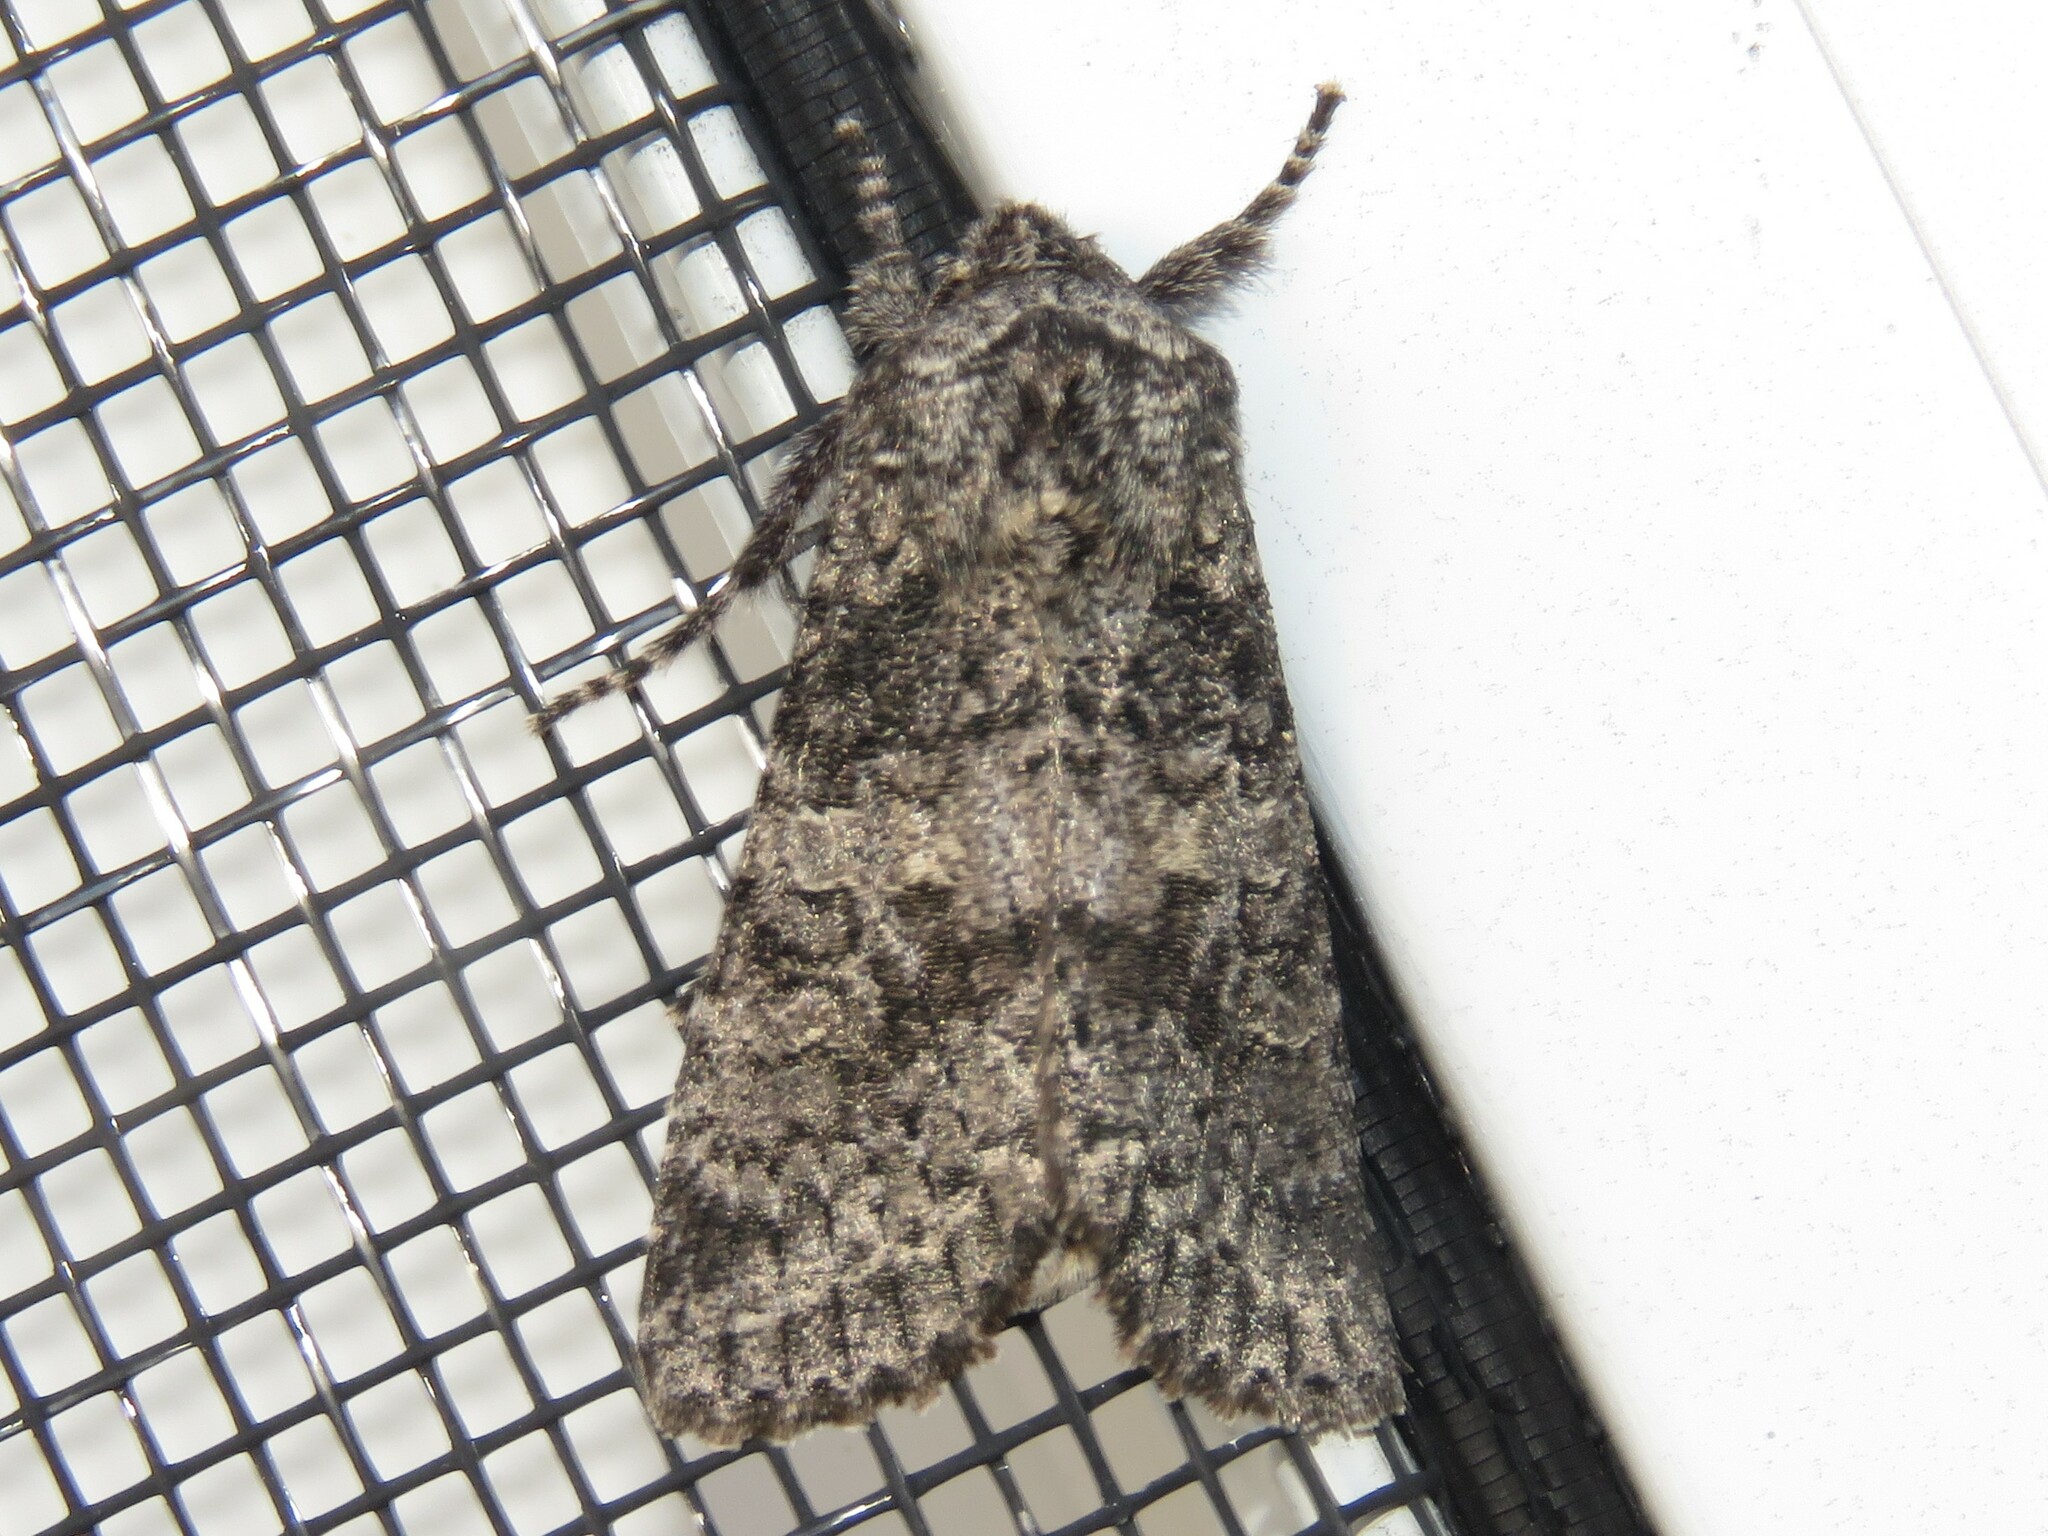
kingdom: Animalia
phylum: Arthropoda
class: Insecta
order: Lepidoptera
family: Noctuidae
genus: Egira
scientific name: Egira dolosa
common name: Lined black aspen cat.
